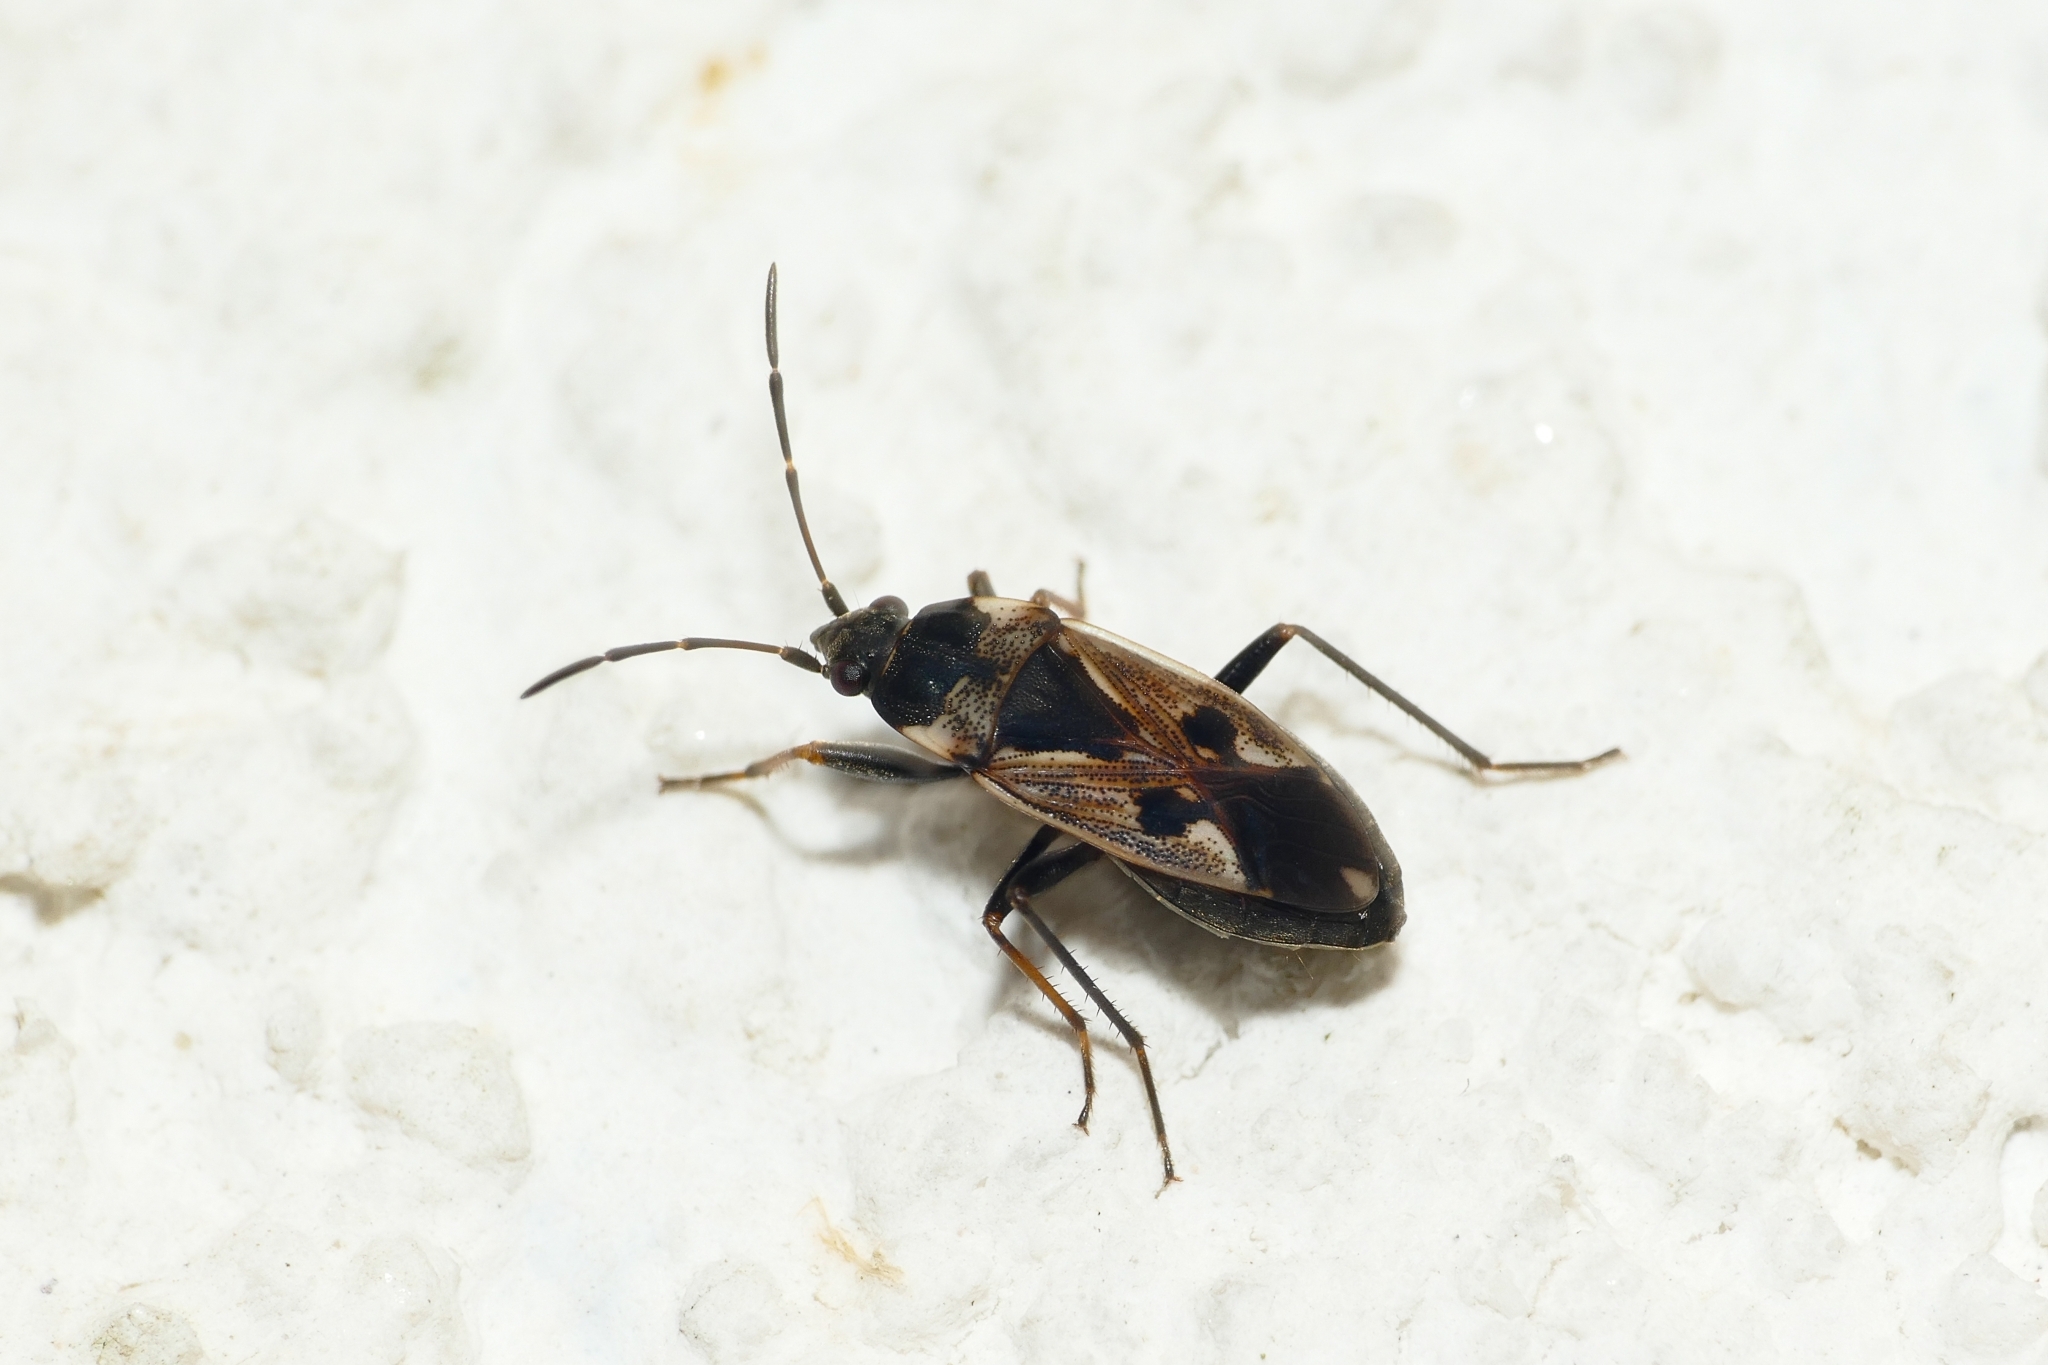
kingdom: Animalia
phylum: Arthropoda
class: Insecta
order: Hemiptera
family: Rhyparochromidae
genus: Rhyparochromus
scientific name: Rhyparochromus vulgaris
